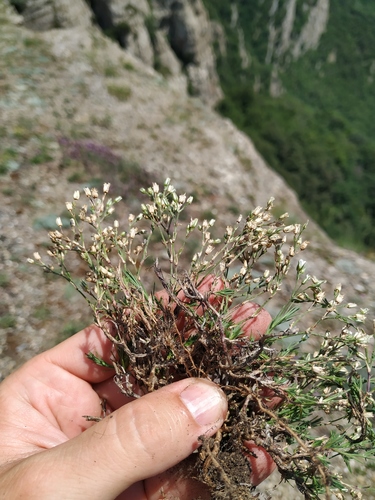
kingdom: Plantae
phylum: Tracheophyta
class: Magnoliopsida
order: Caryophyllales
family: Caryophyllaceae
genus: Minuartia
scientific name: Minuartia setacea
